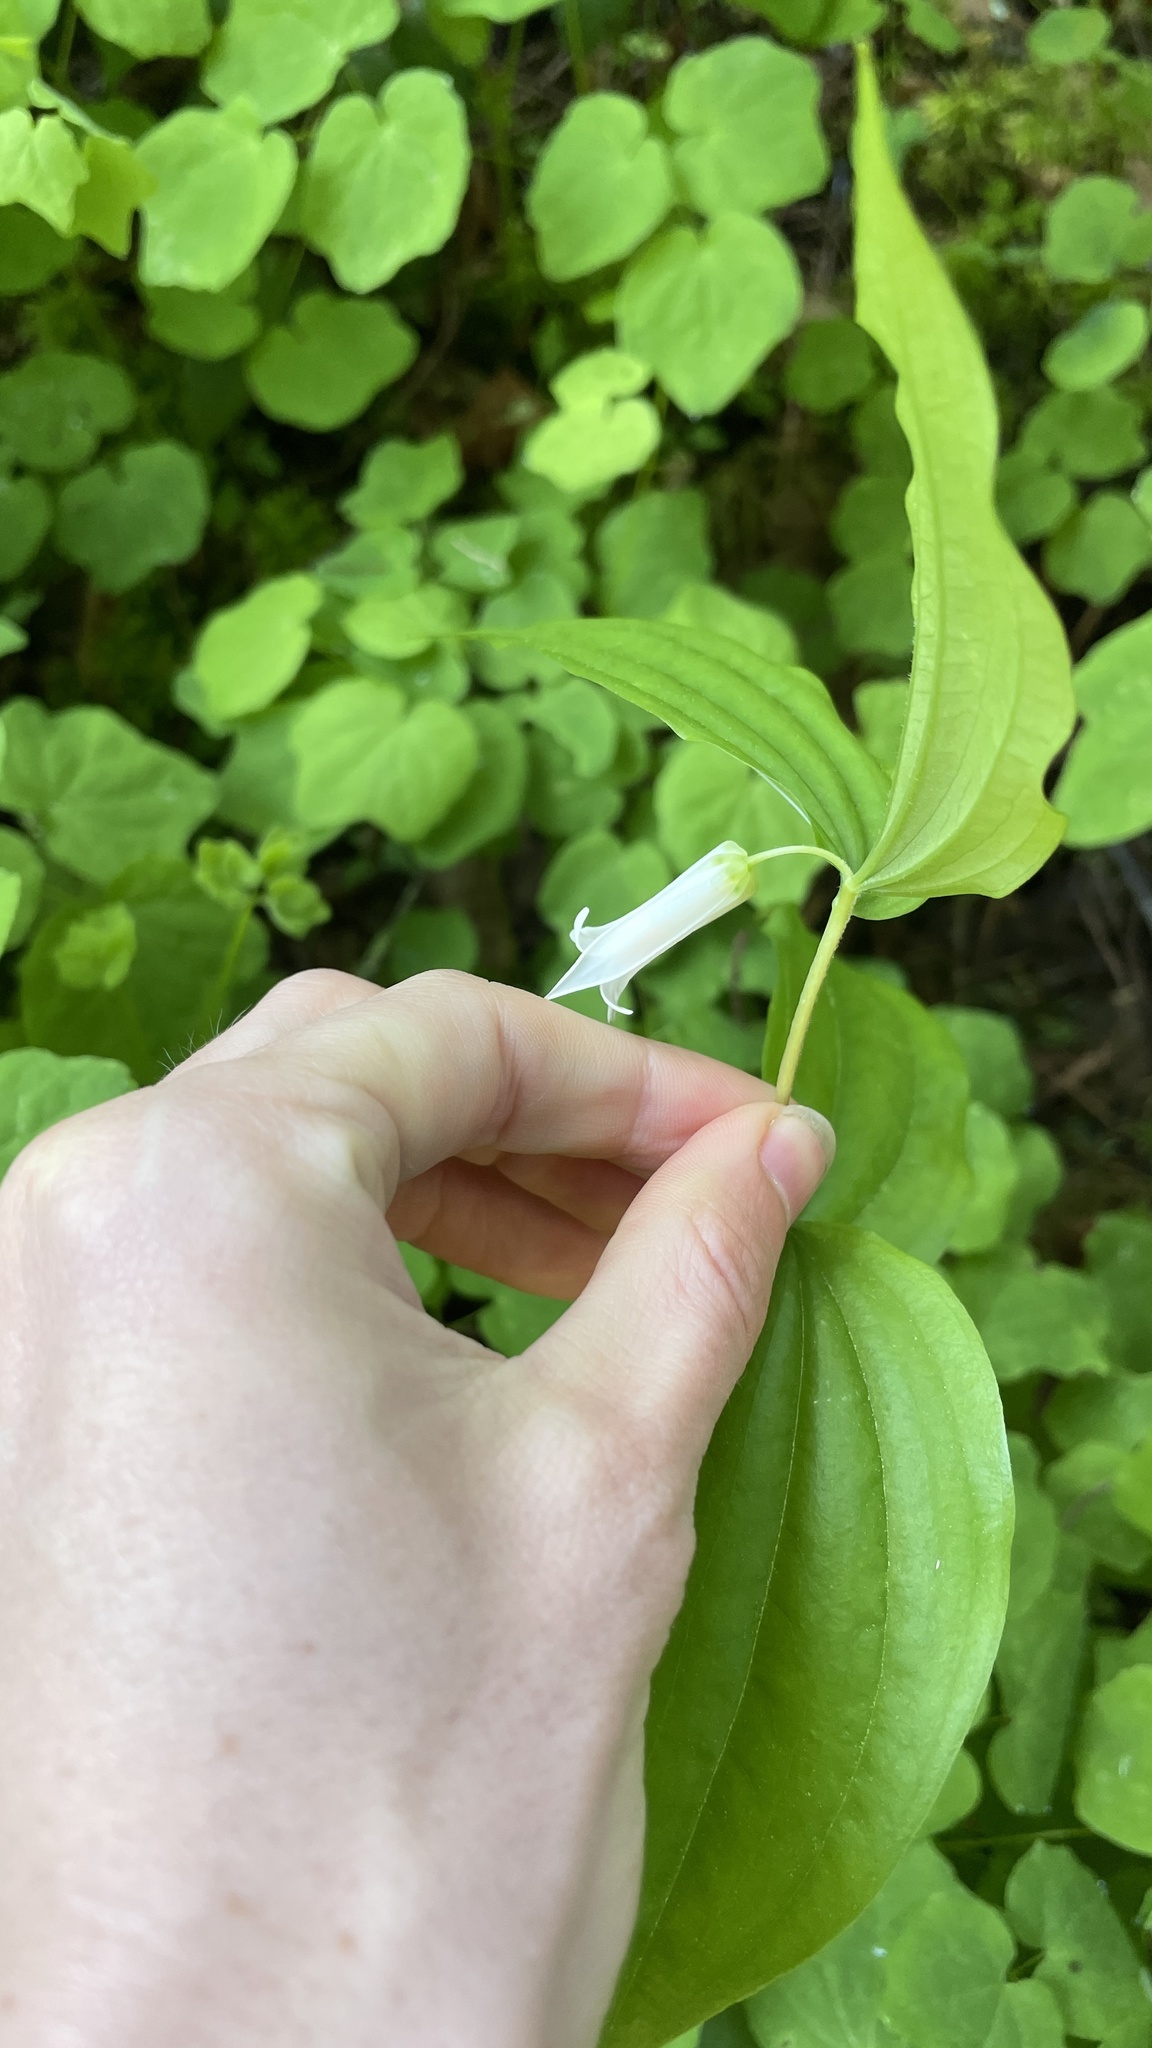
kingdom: Plantae
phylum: Tracheophyta
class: Liliopsida
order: Liliales
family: Liliaceae
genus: Prosartes
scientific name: Prosartes smithii
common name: Fairy-lantern
